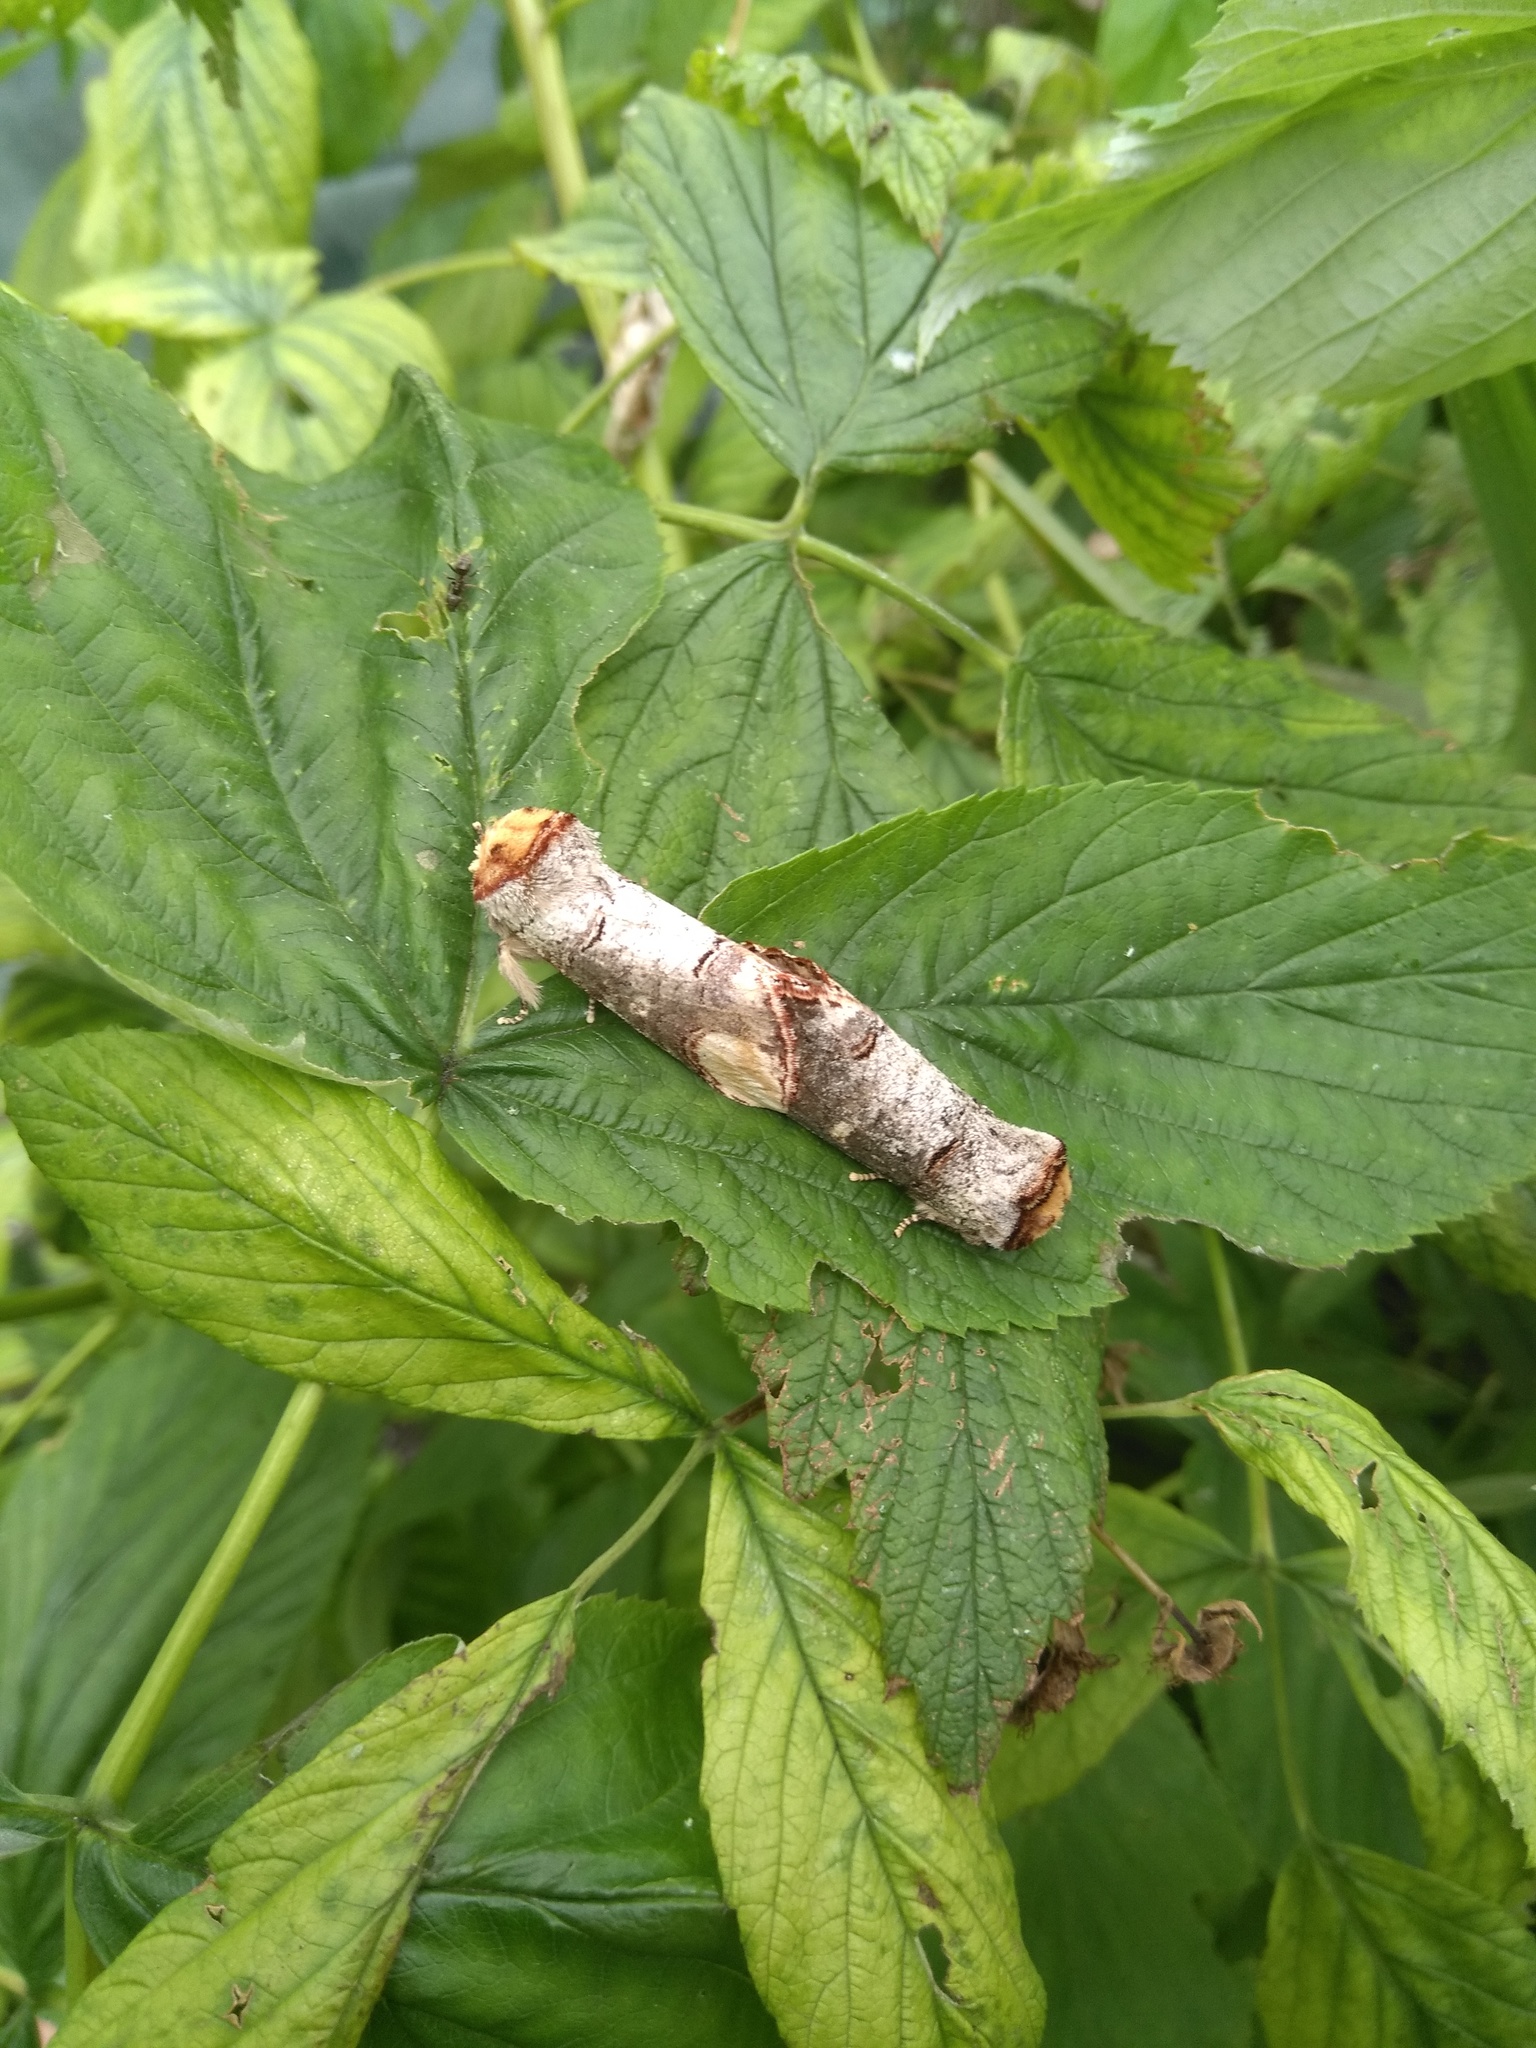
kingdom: Animalia
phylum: Arthropoda
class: Insecta
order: Lepidoptera
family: Notodontidae
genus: Phalera
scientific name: Phalera bucephala
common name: Buff-tip
